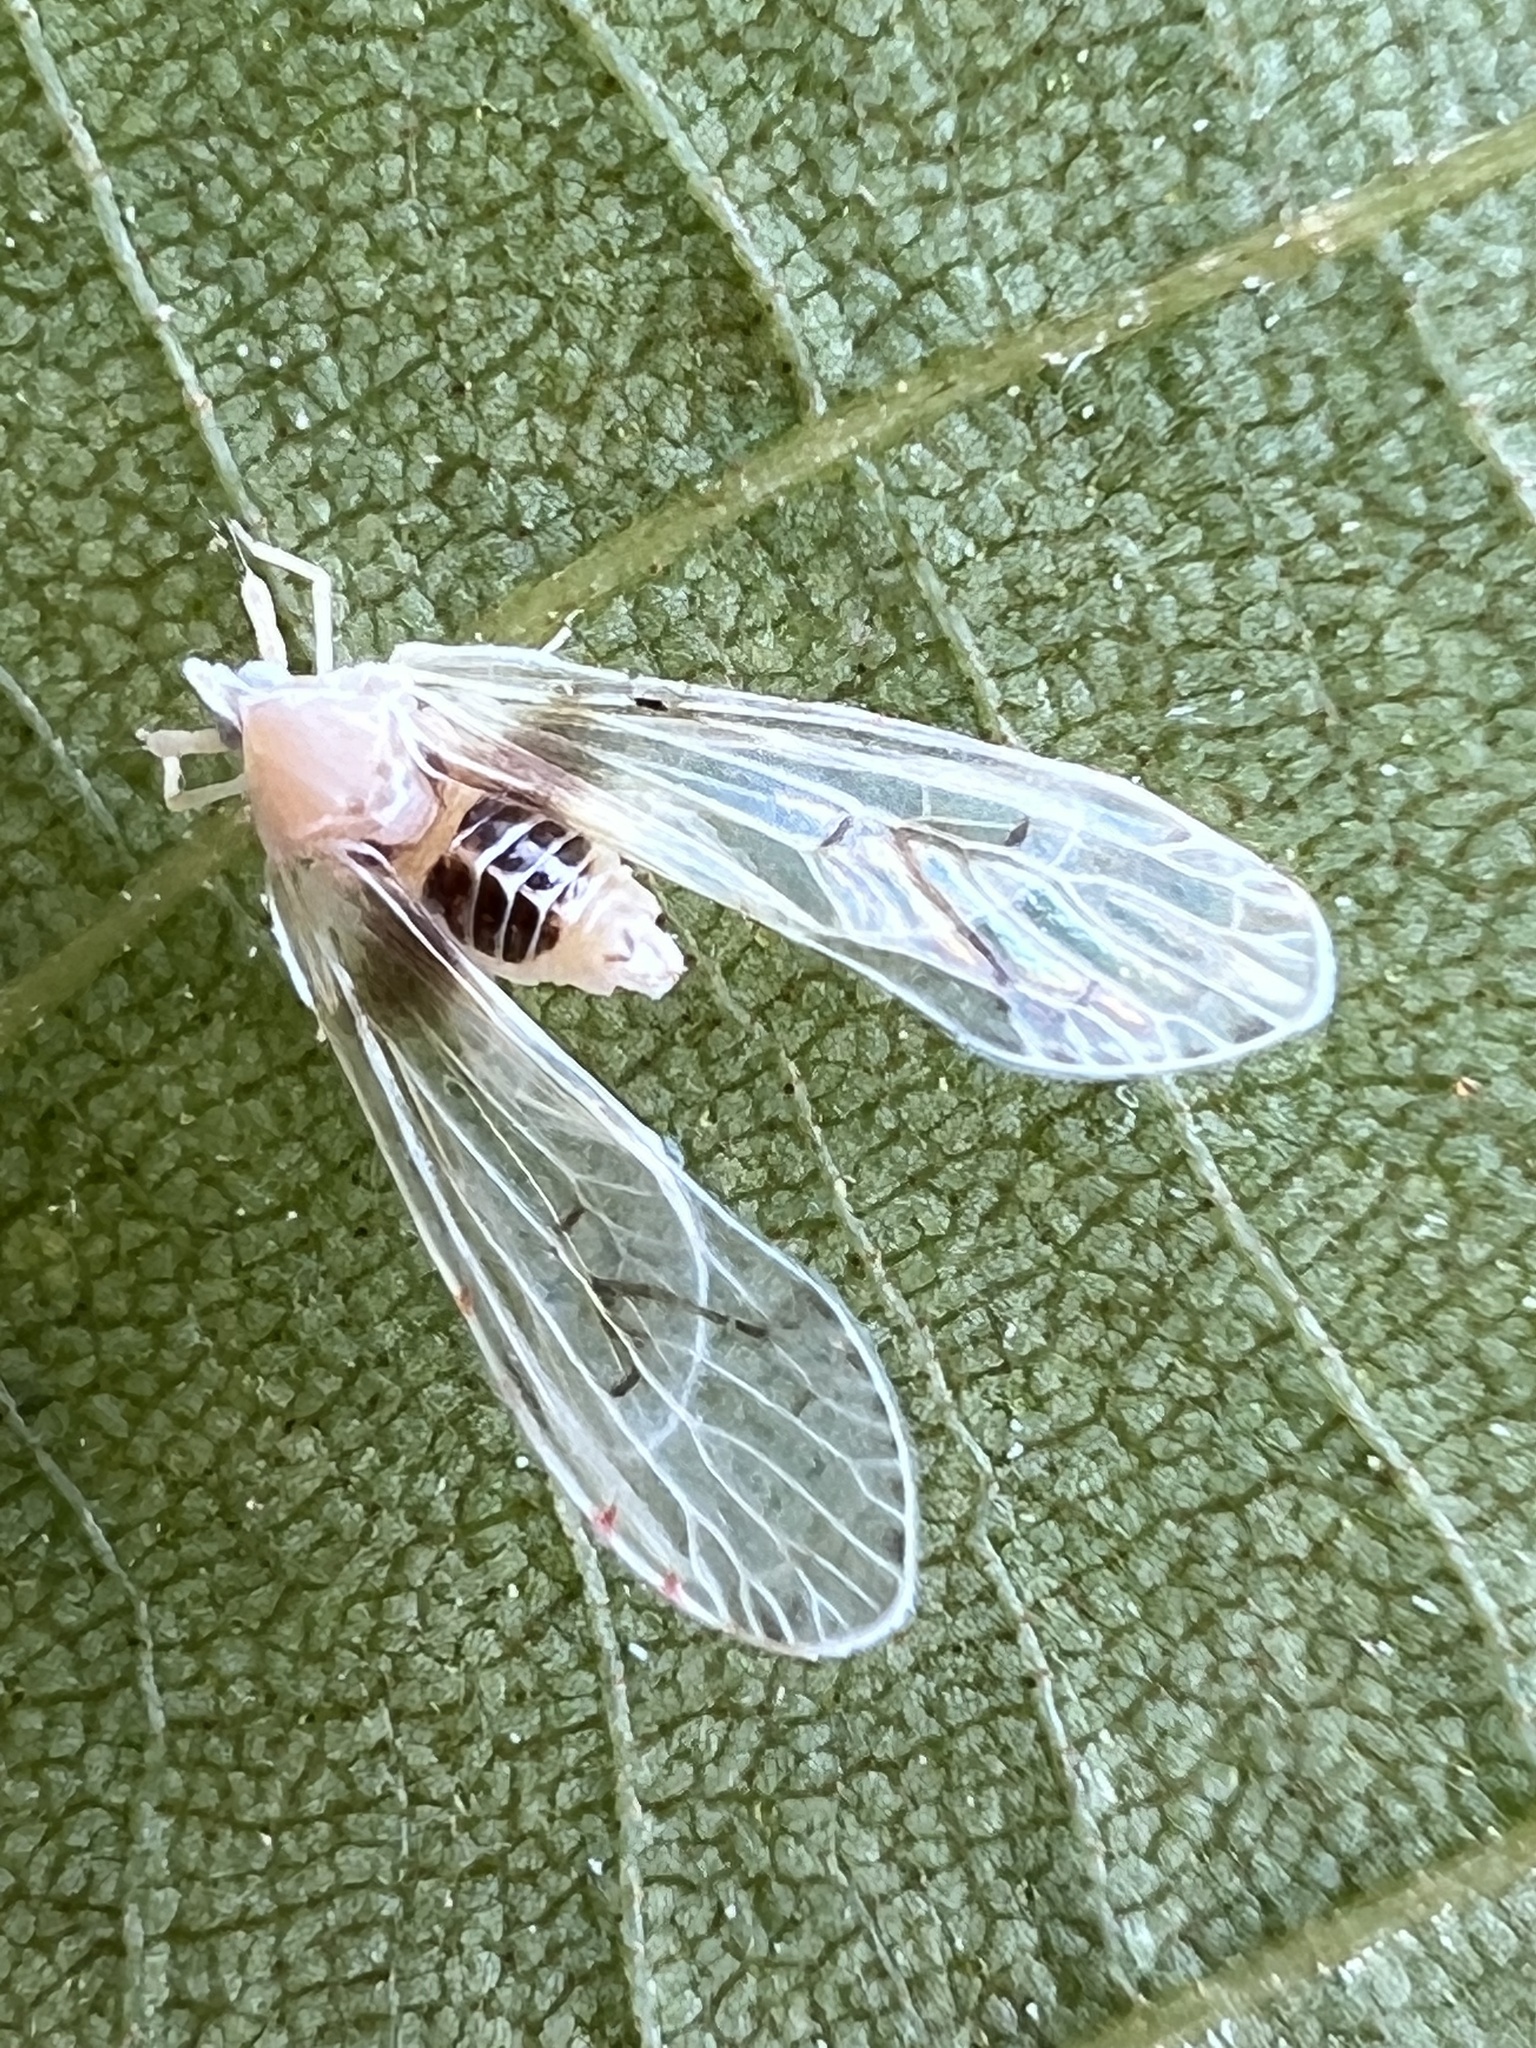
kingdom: Animalia
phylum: Arthropoda
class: Insecta
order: Hemiptera
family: Derbidae
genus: Anotia
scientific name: Anotia burnetii
